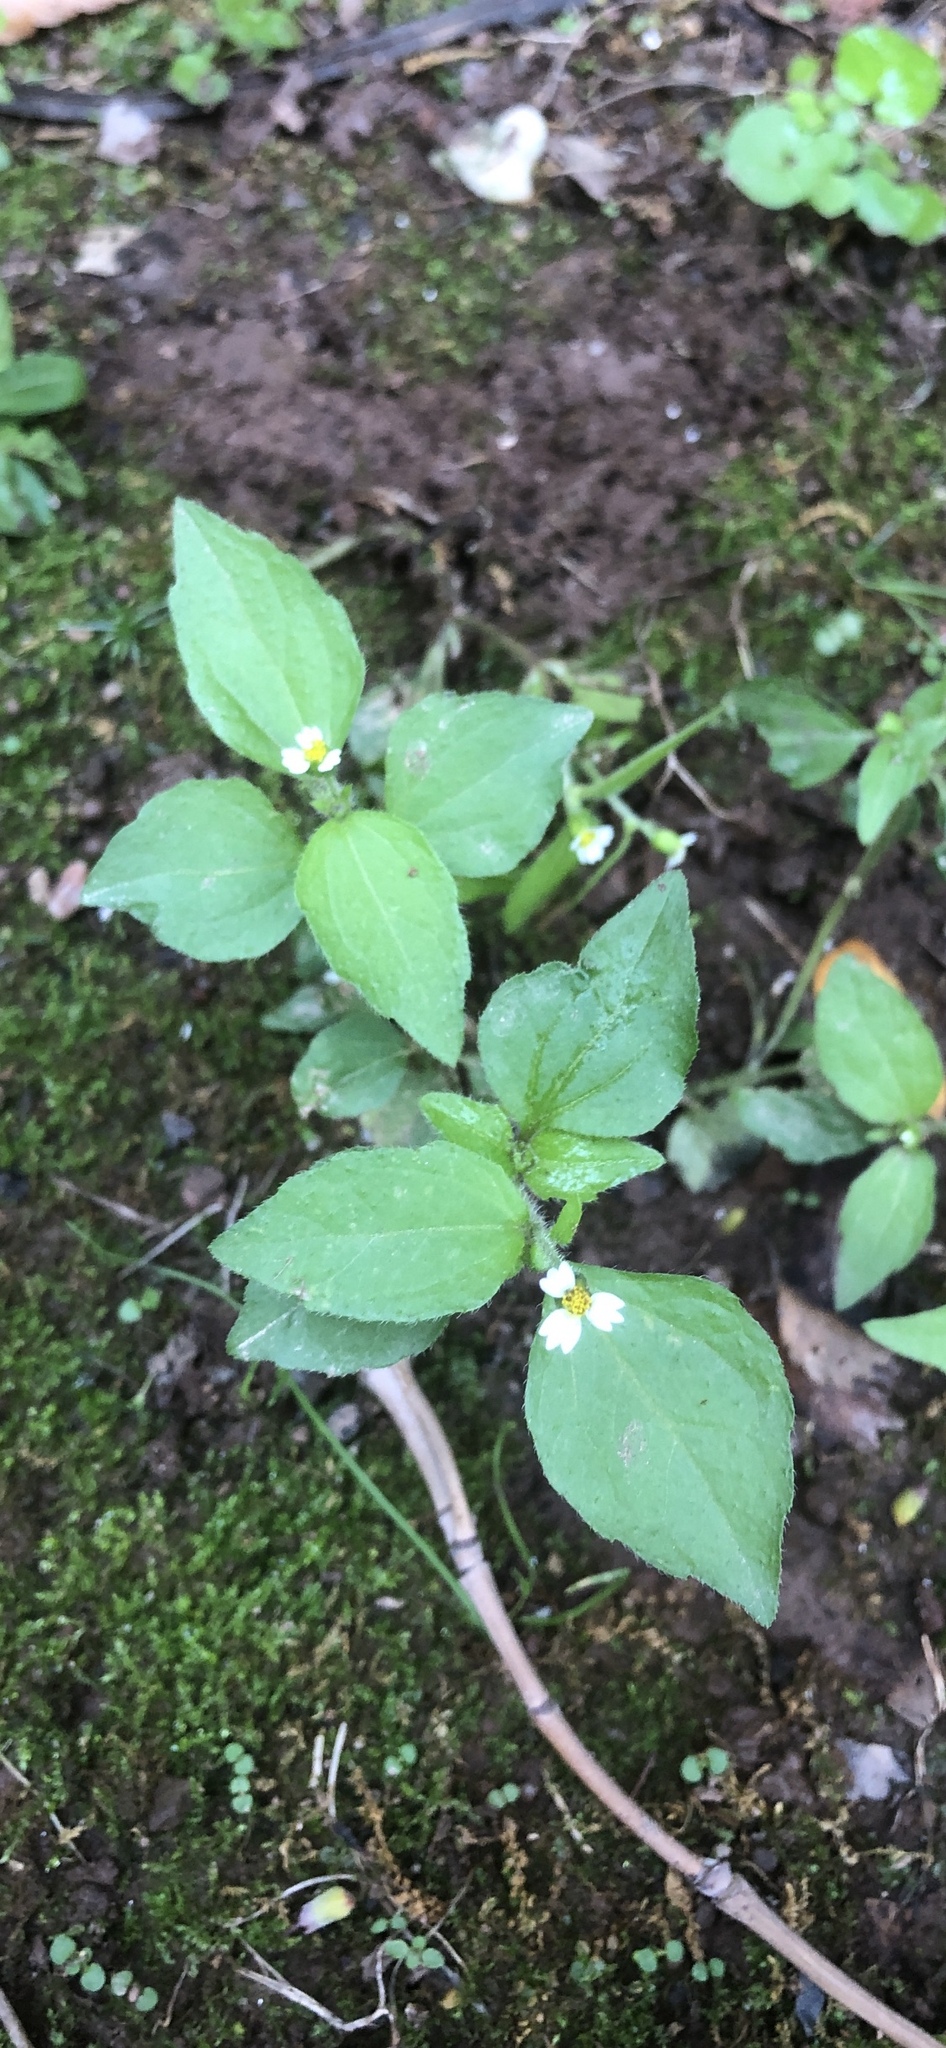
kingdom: Plantae
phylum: Tracheophyta
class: Magnoliopsida
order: Asterales
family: Asteraceae
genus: Galinsoga
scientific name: Galinsoga quadriradiata
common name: Shaggy soldier
